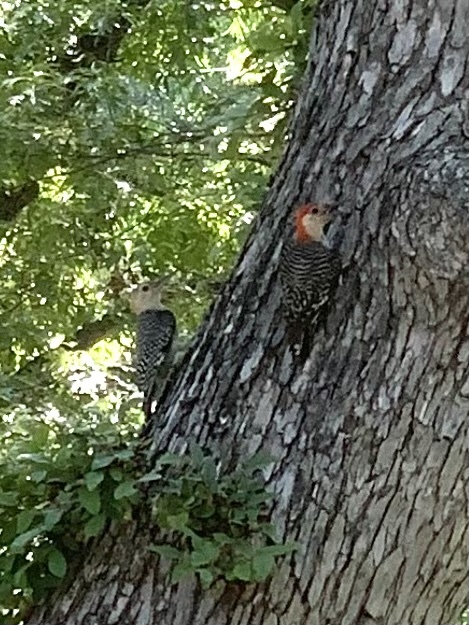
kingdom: Animalia
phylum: Chordata
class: Aves
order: Piciformes
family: Picidae
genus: Melanerpes
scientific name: Melanerpes carolinus
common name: Red-bellied woodpecker
